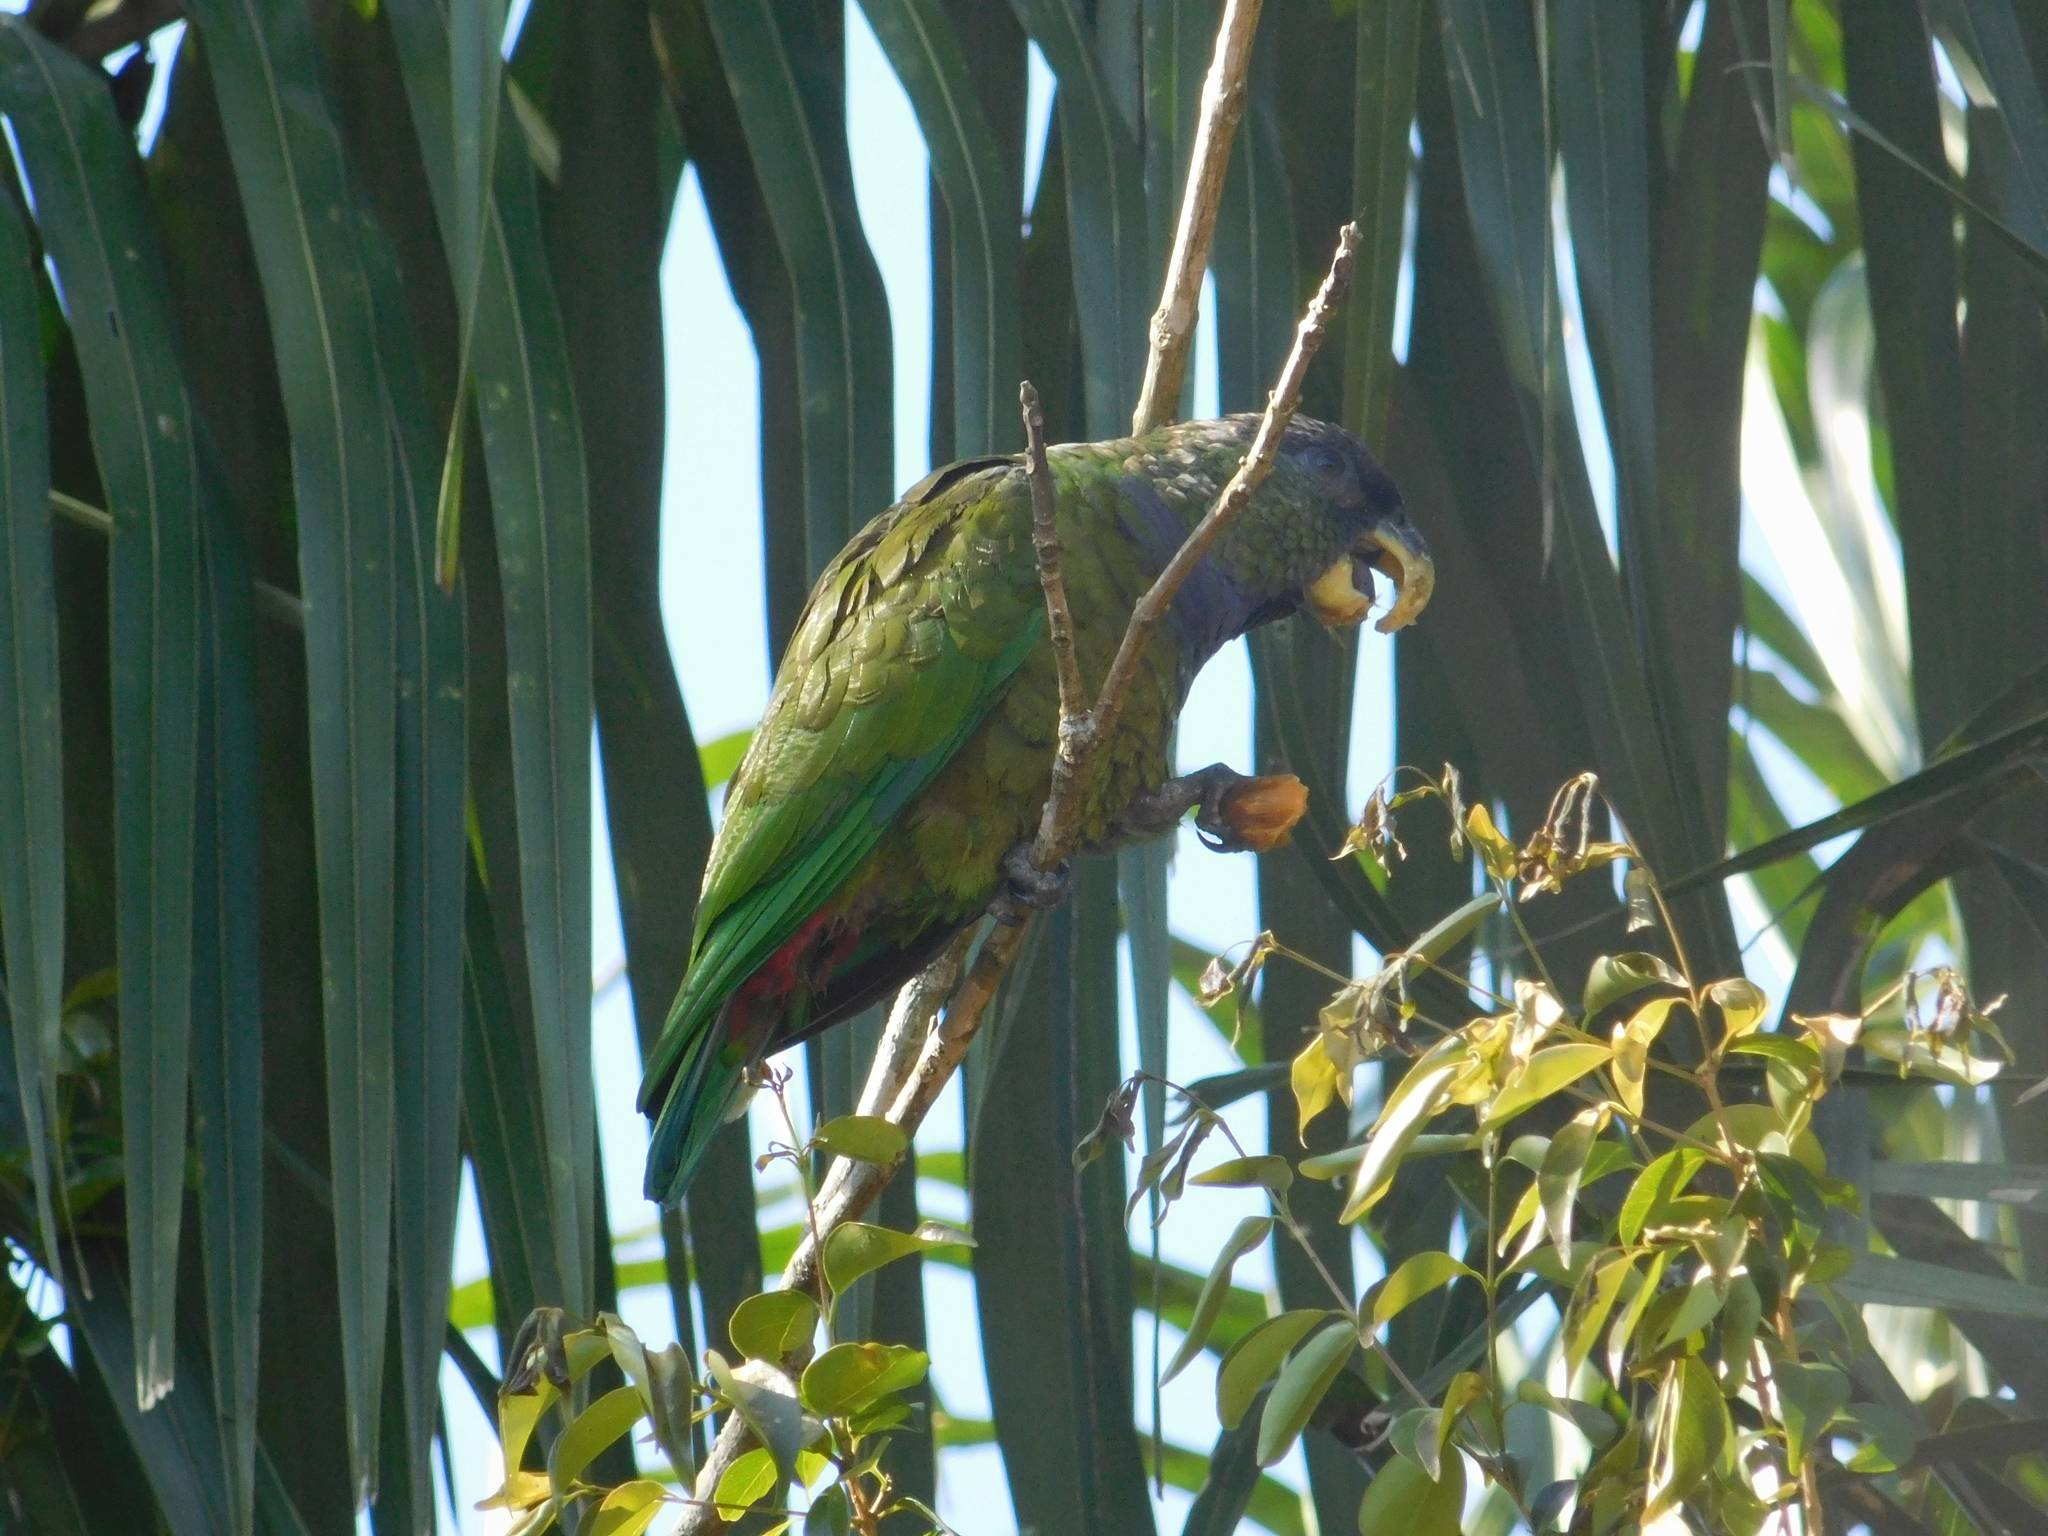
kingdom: Animalia
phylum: Chordata
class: Aves
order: Psittaciformes
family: Psittacidae
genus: Pionus
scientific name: Pionus maximiliani
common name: Scaly-headed parrot
